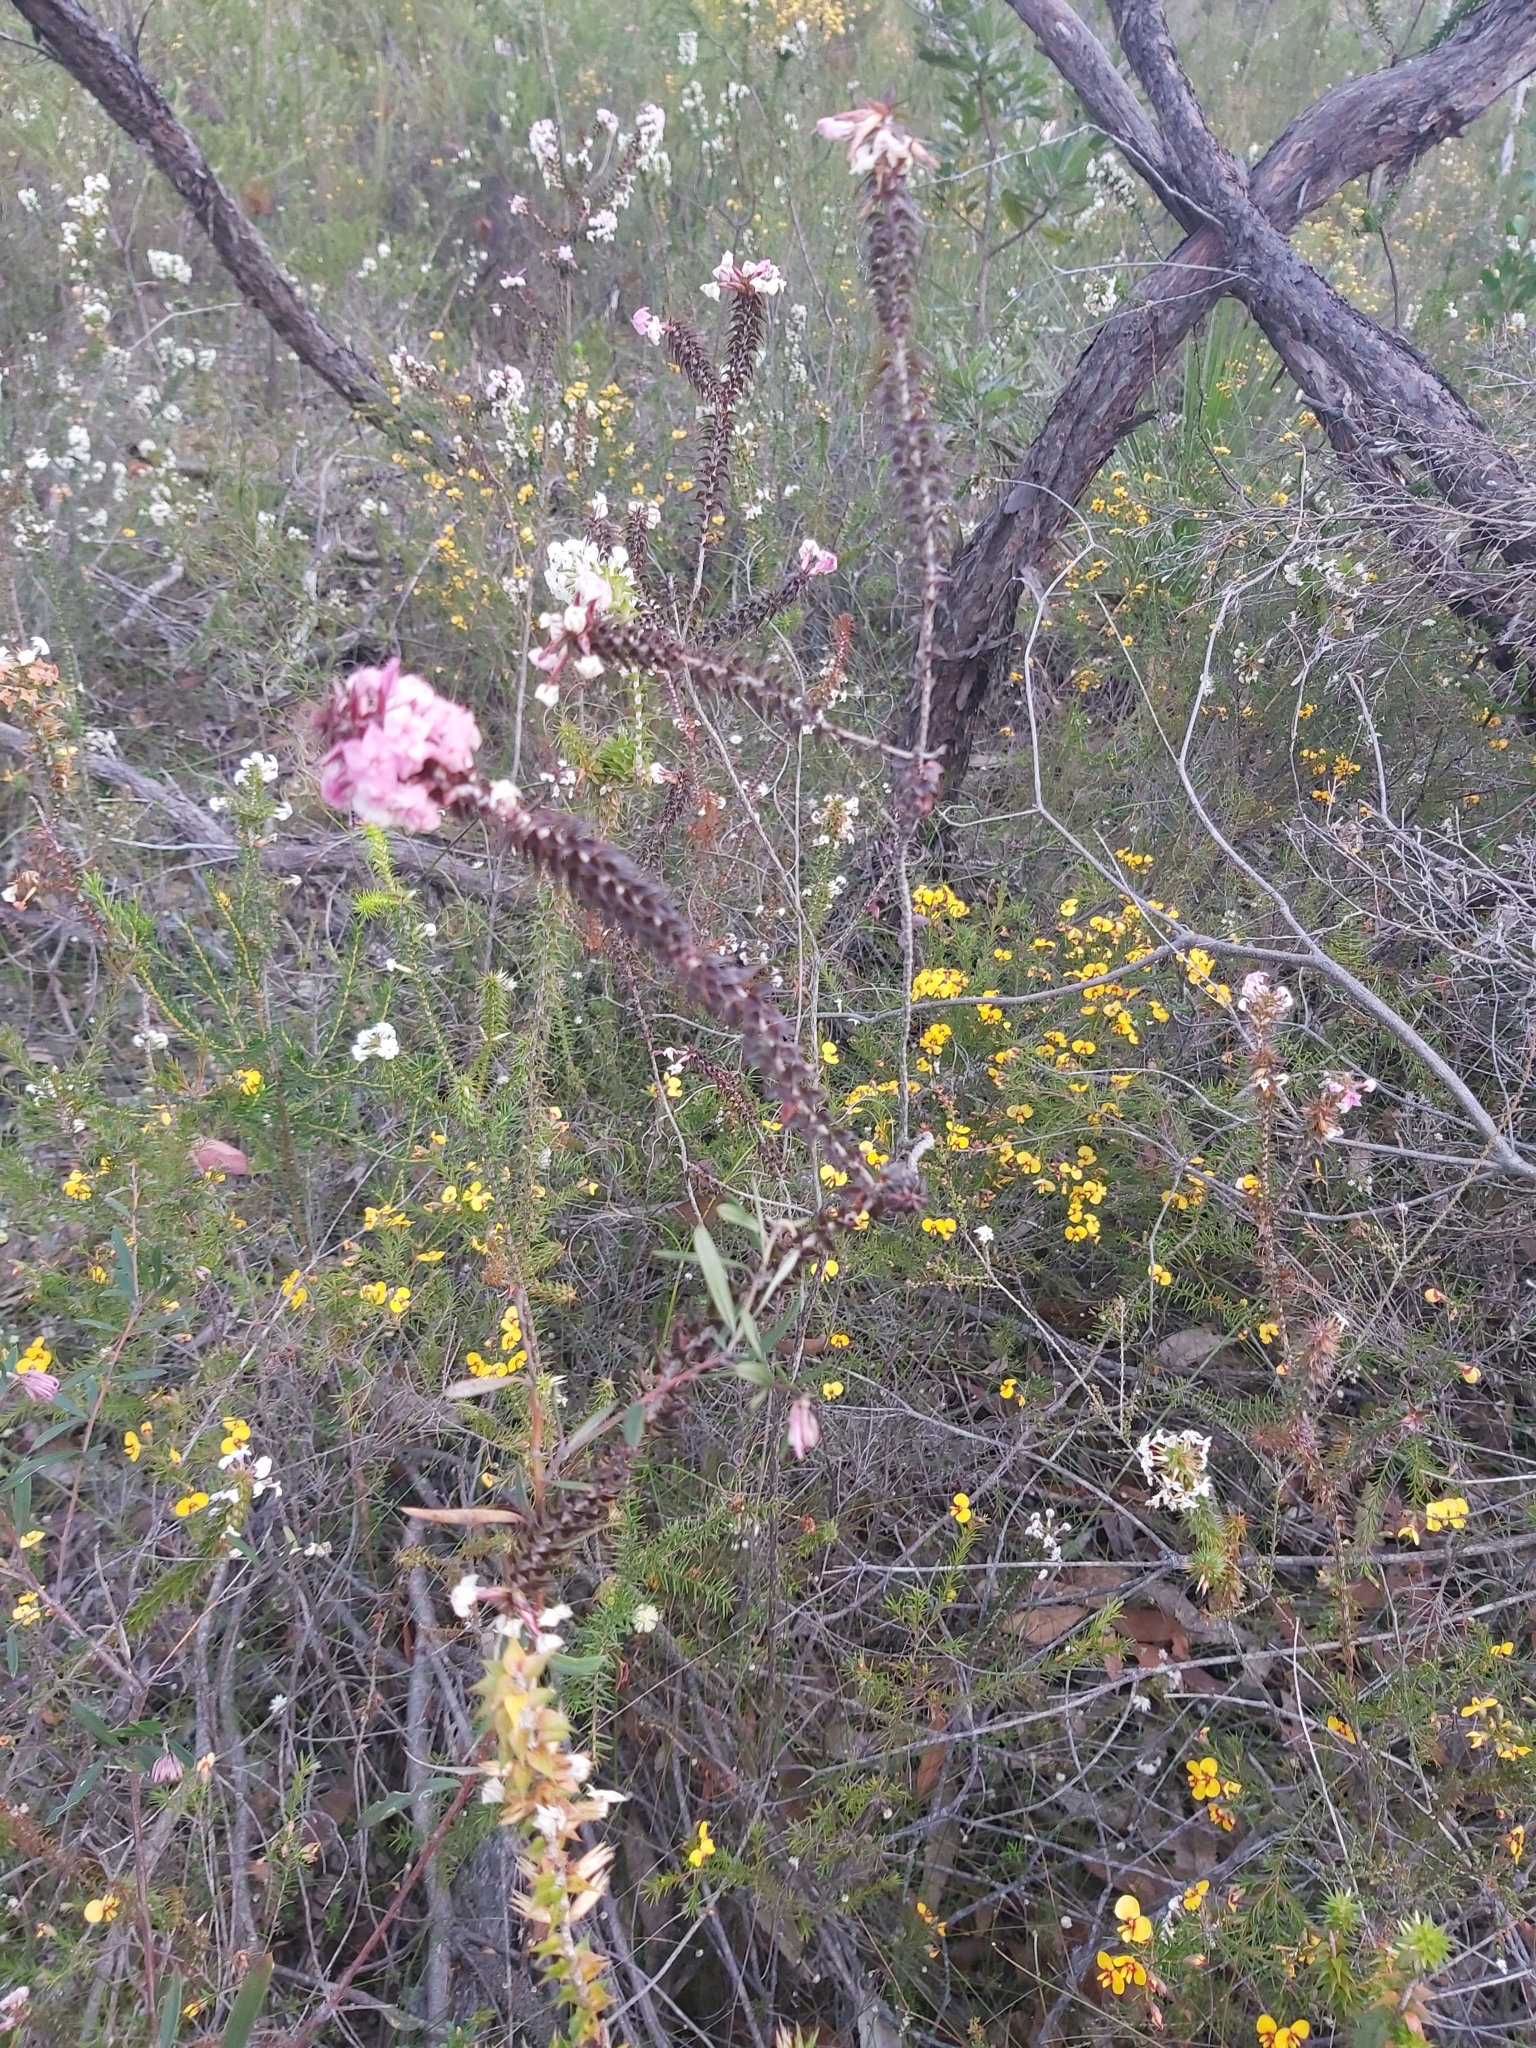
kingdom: Plantae
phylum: Tracheophyta
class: Magnoliopsida
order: Ericales
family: Ericaceae
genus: Woollsia
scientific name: Woollsia pungens
